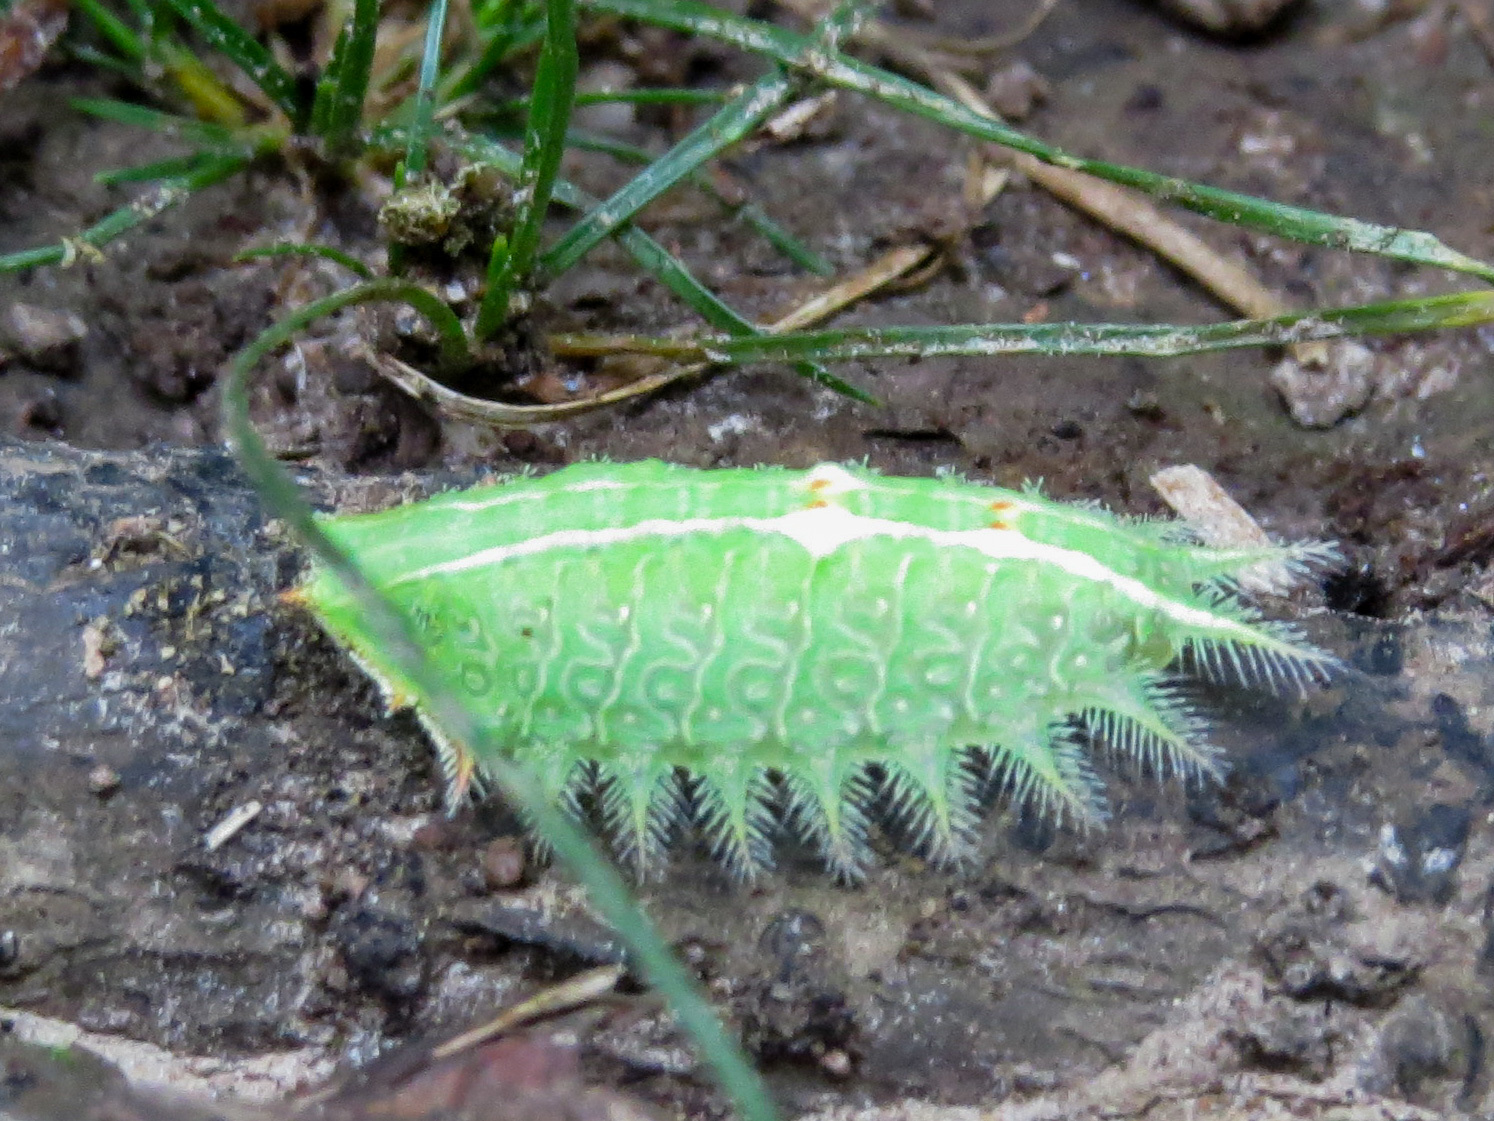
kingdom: Animalia
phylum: Arthropoda
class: Insecta
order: Lepidoptera
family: Limacodidae
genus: Isa
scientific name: Isa textula
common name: Crowned slug moth
